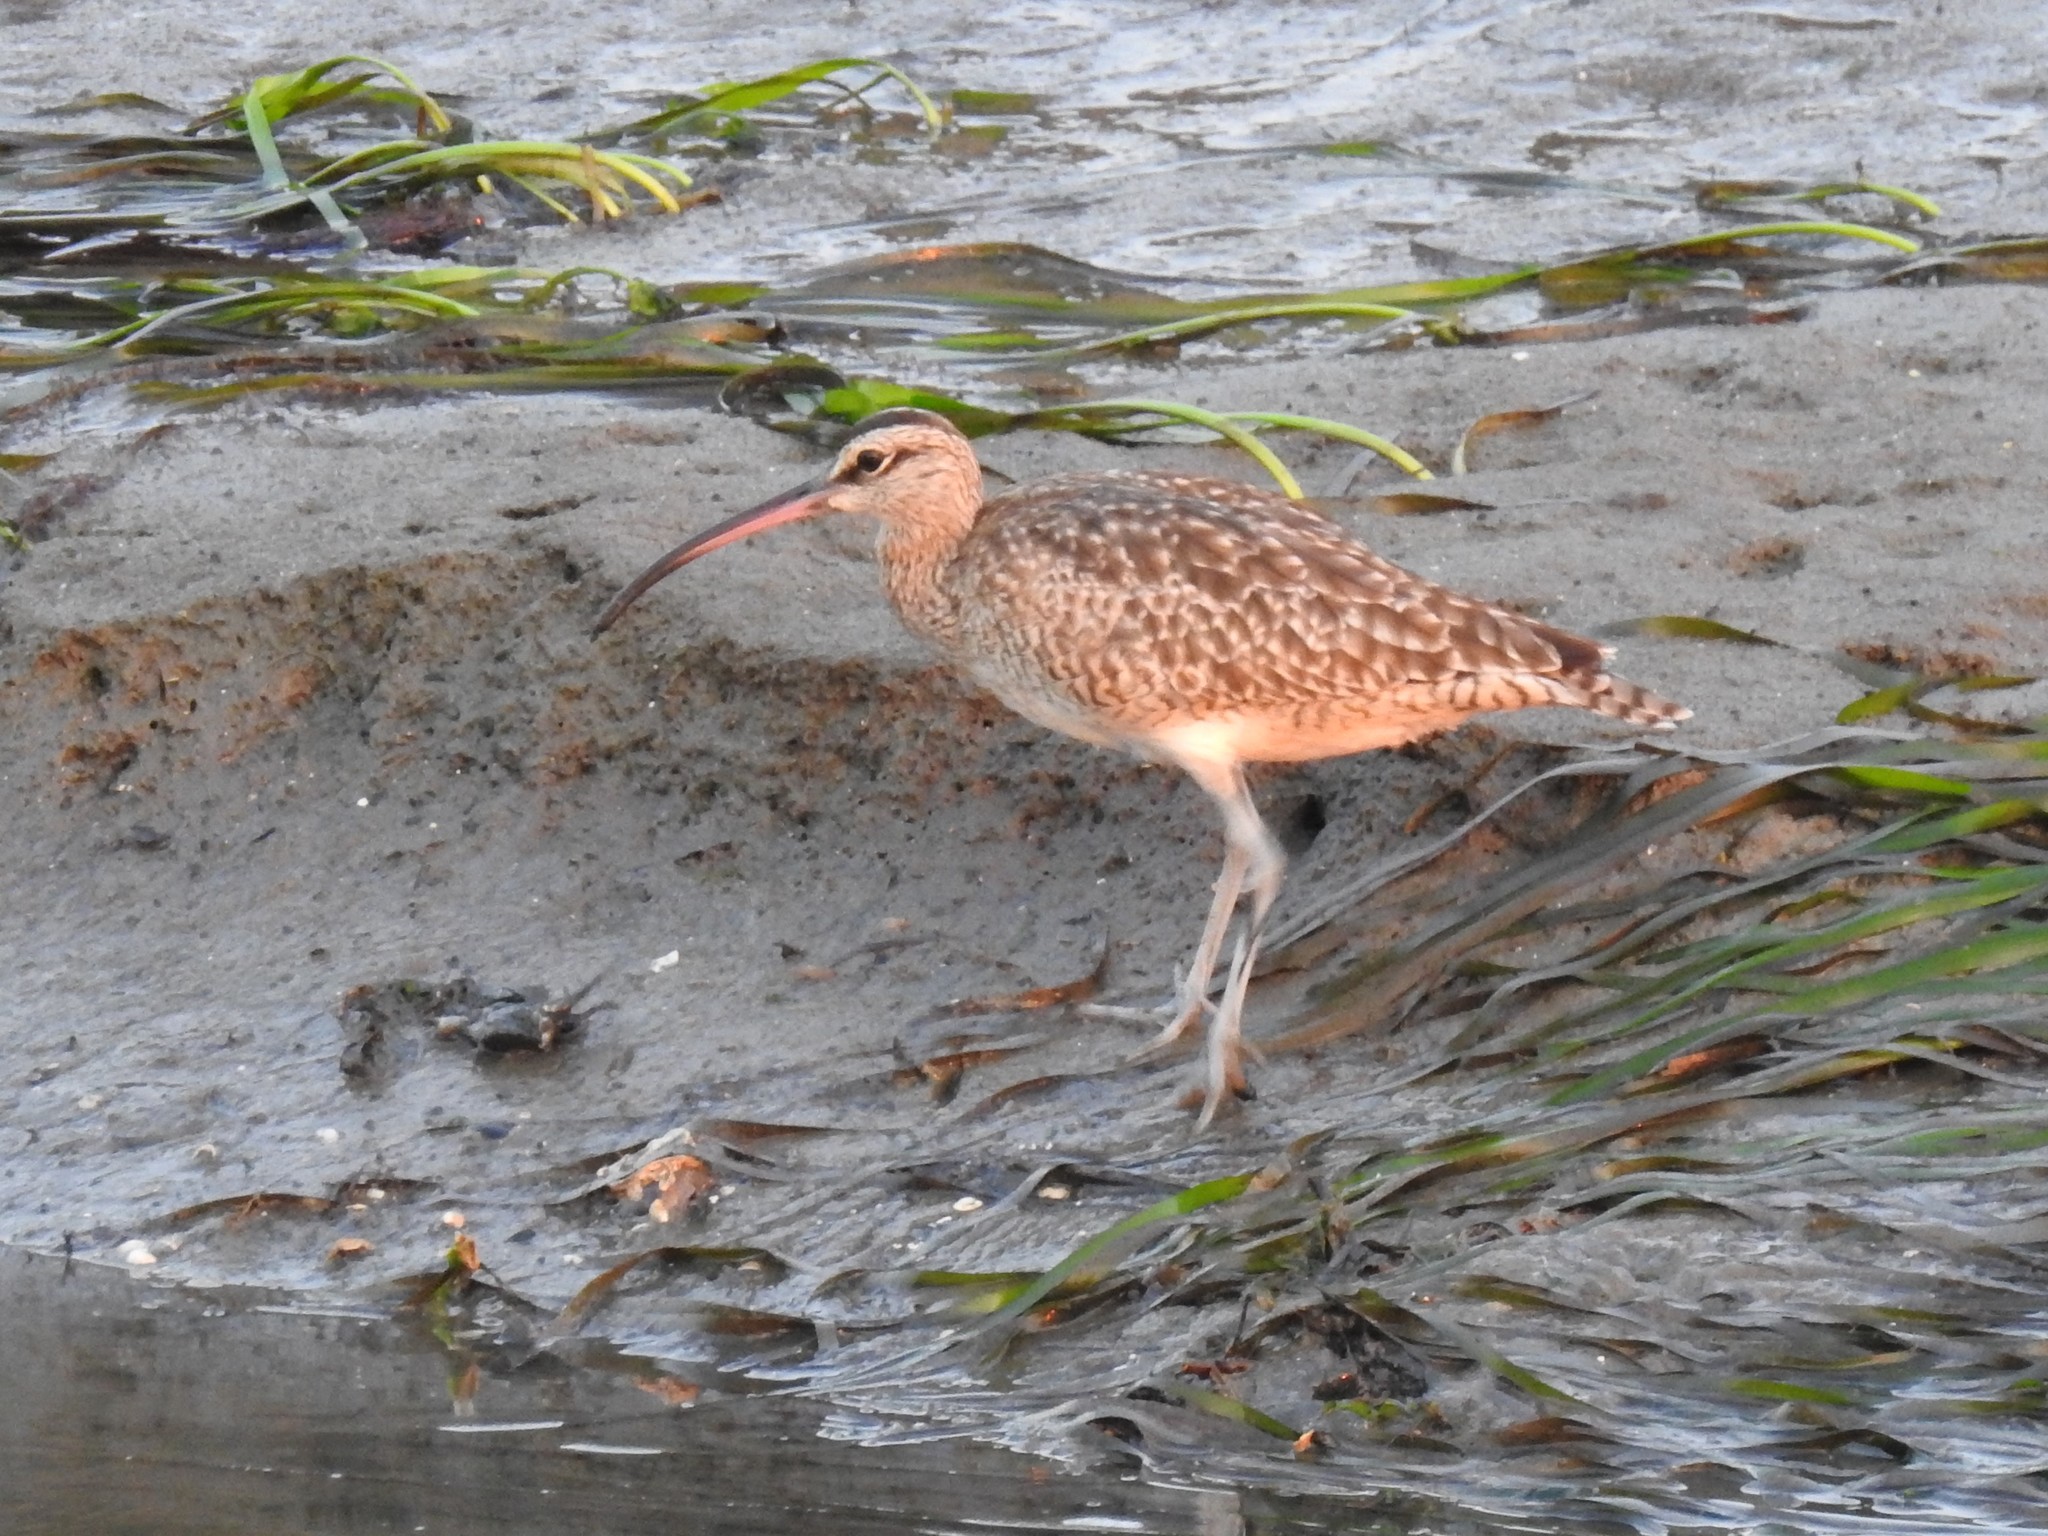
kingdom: Animalia
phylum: Chordata
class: Aves
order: Charadriiformes
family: Scolopacidae
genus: Numenius
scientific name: Numenius phaeopus
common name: Whimbrel
